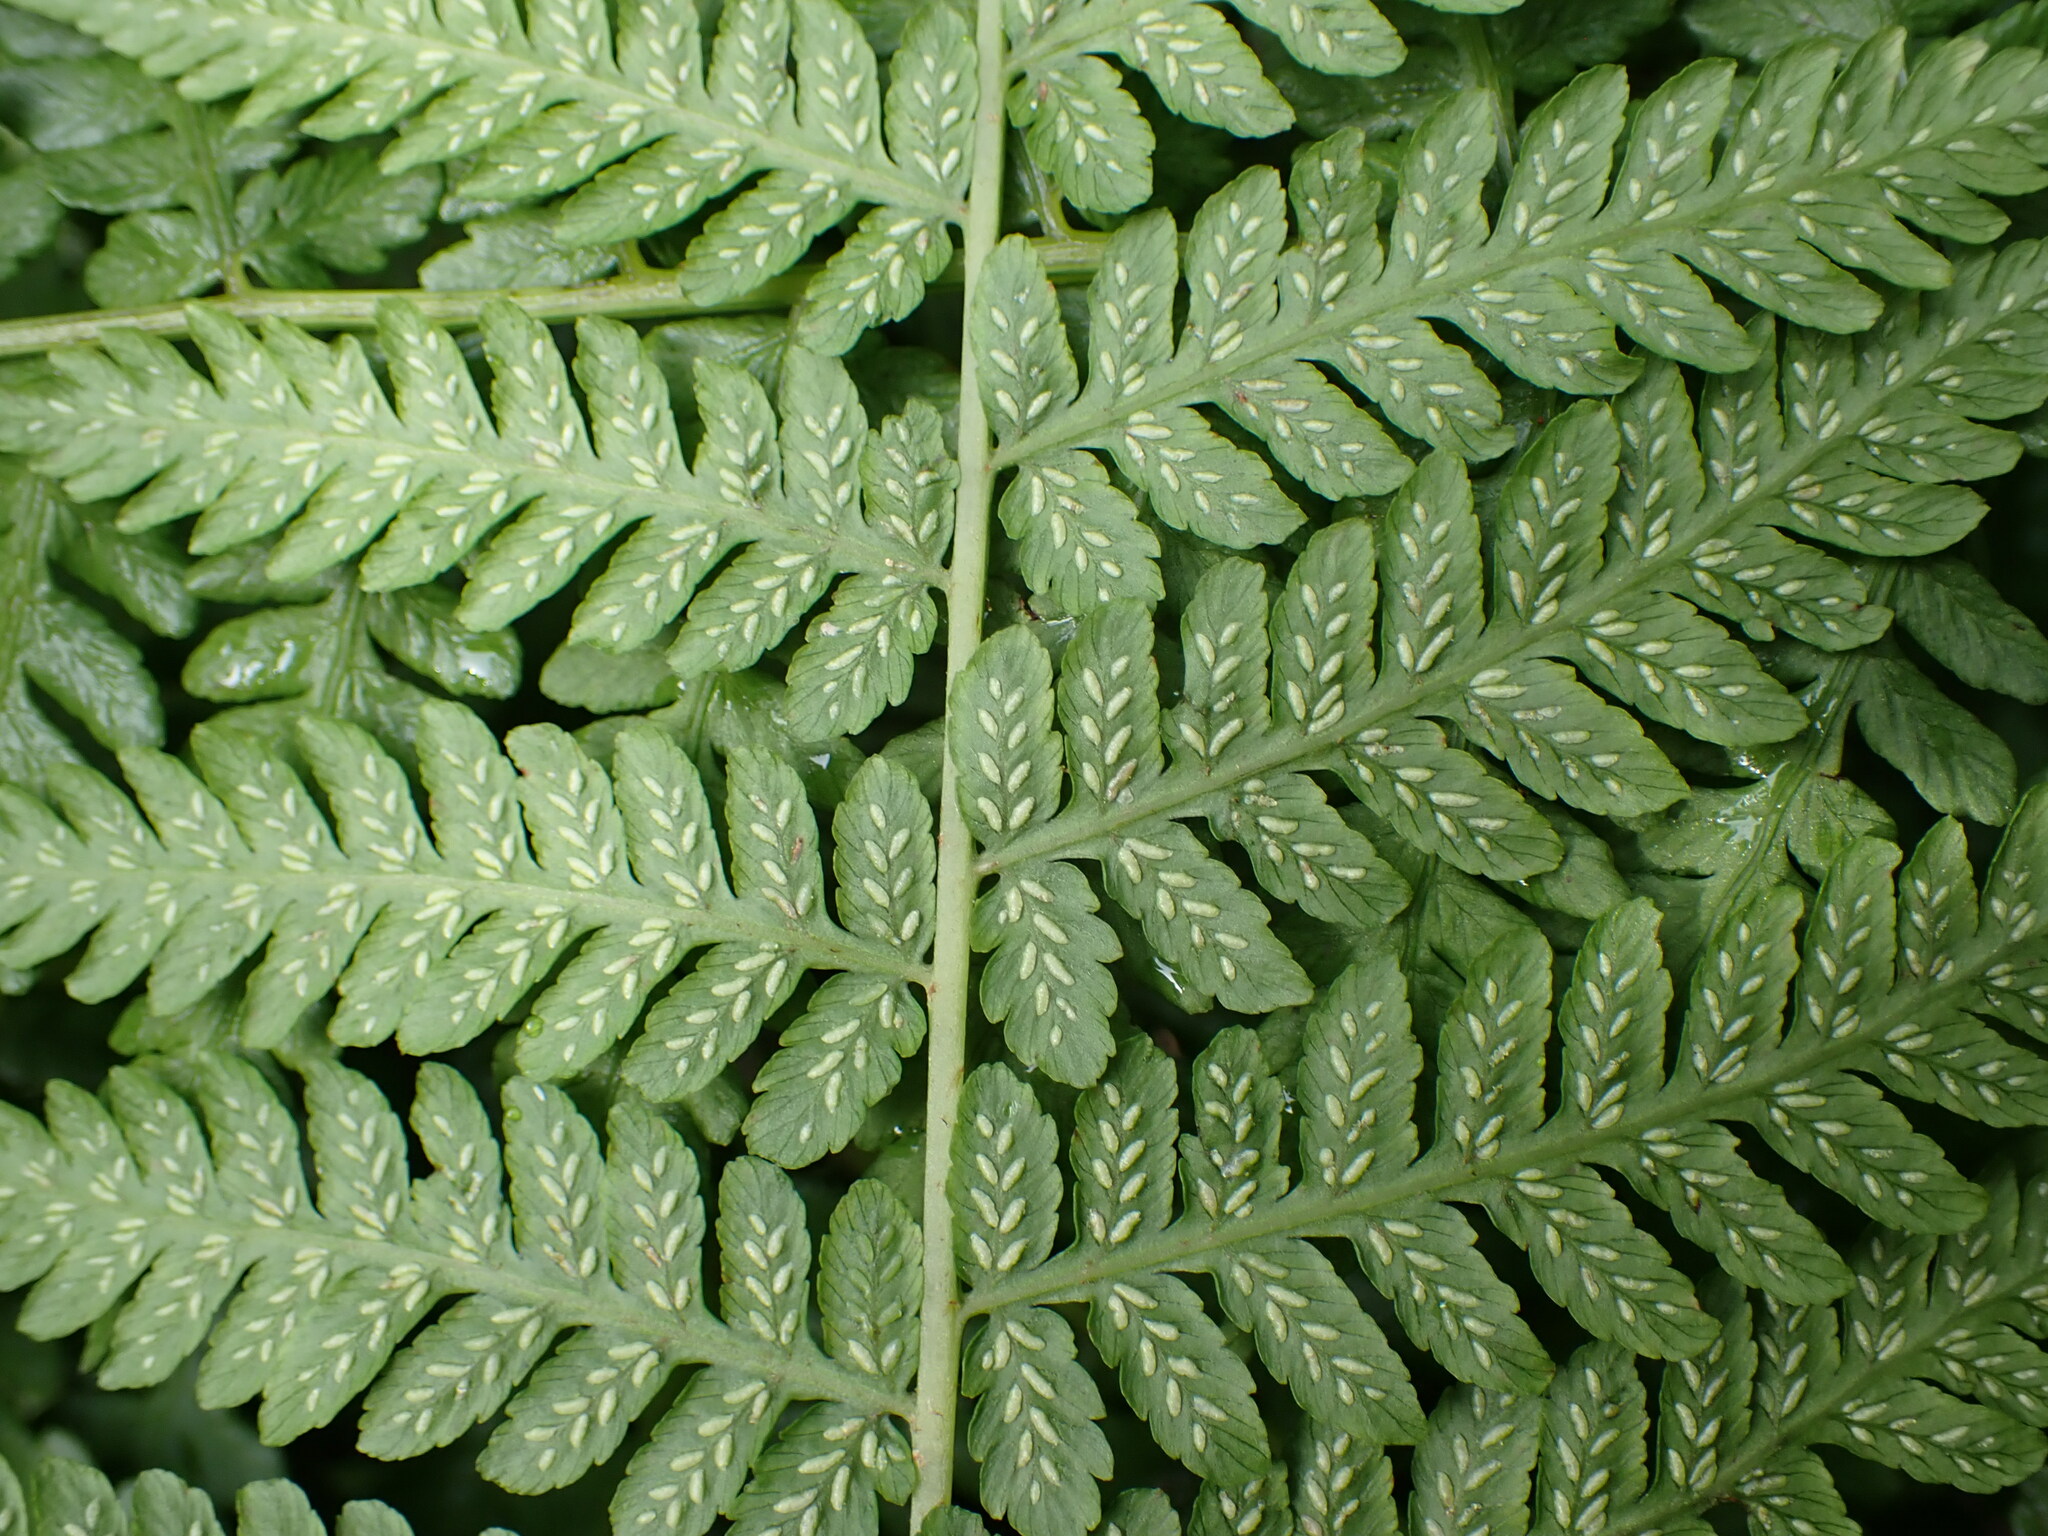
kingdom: Plantae
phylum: Tracheophyta
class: Polypodiopsida
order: Polypodiales
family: Athyriaceae
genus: Diplazium
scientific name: Diplazium australe
